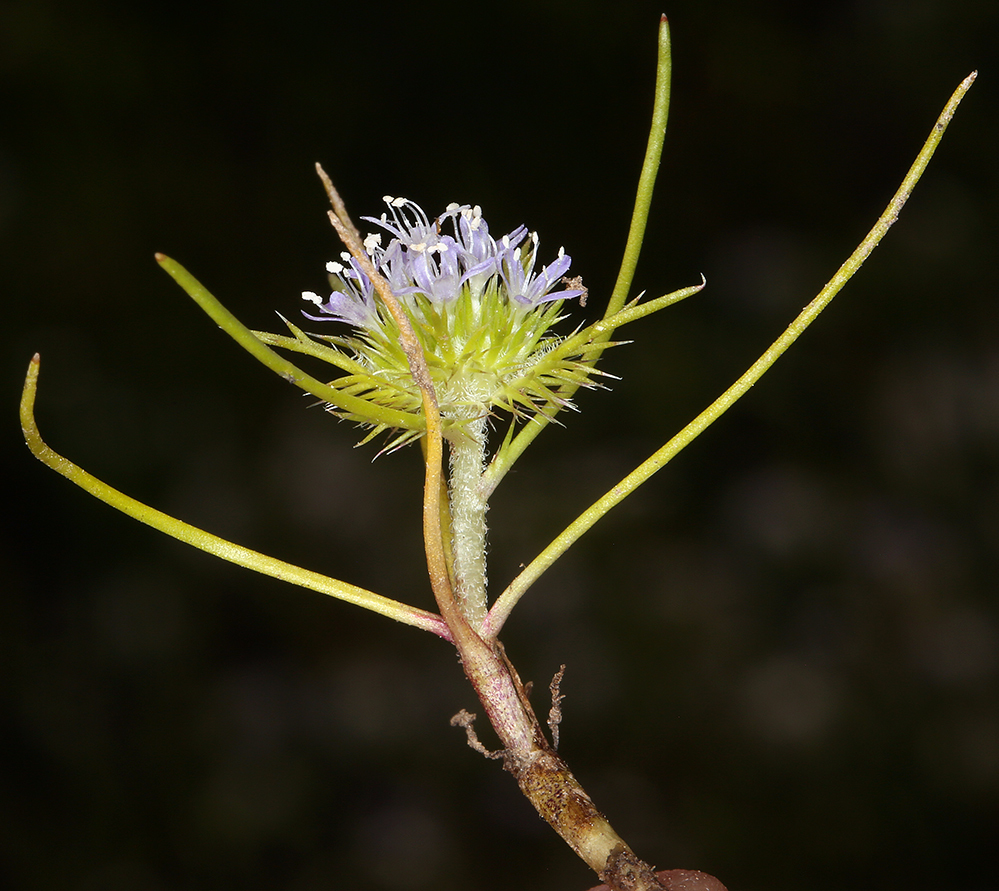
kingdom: Plantae
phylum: Tracheophyta
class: Magnoliopsida
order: Ericales
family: Polemoniaceae
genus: Navarretia
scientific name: Navarretia leucocephala
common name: White-flowered navarretia
